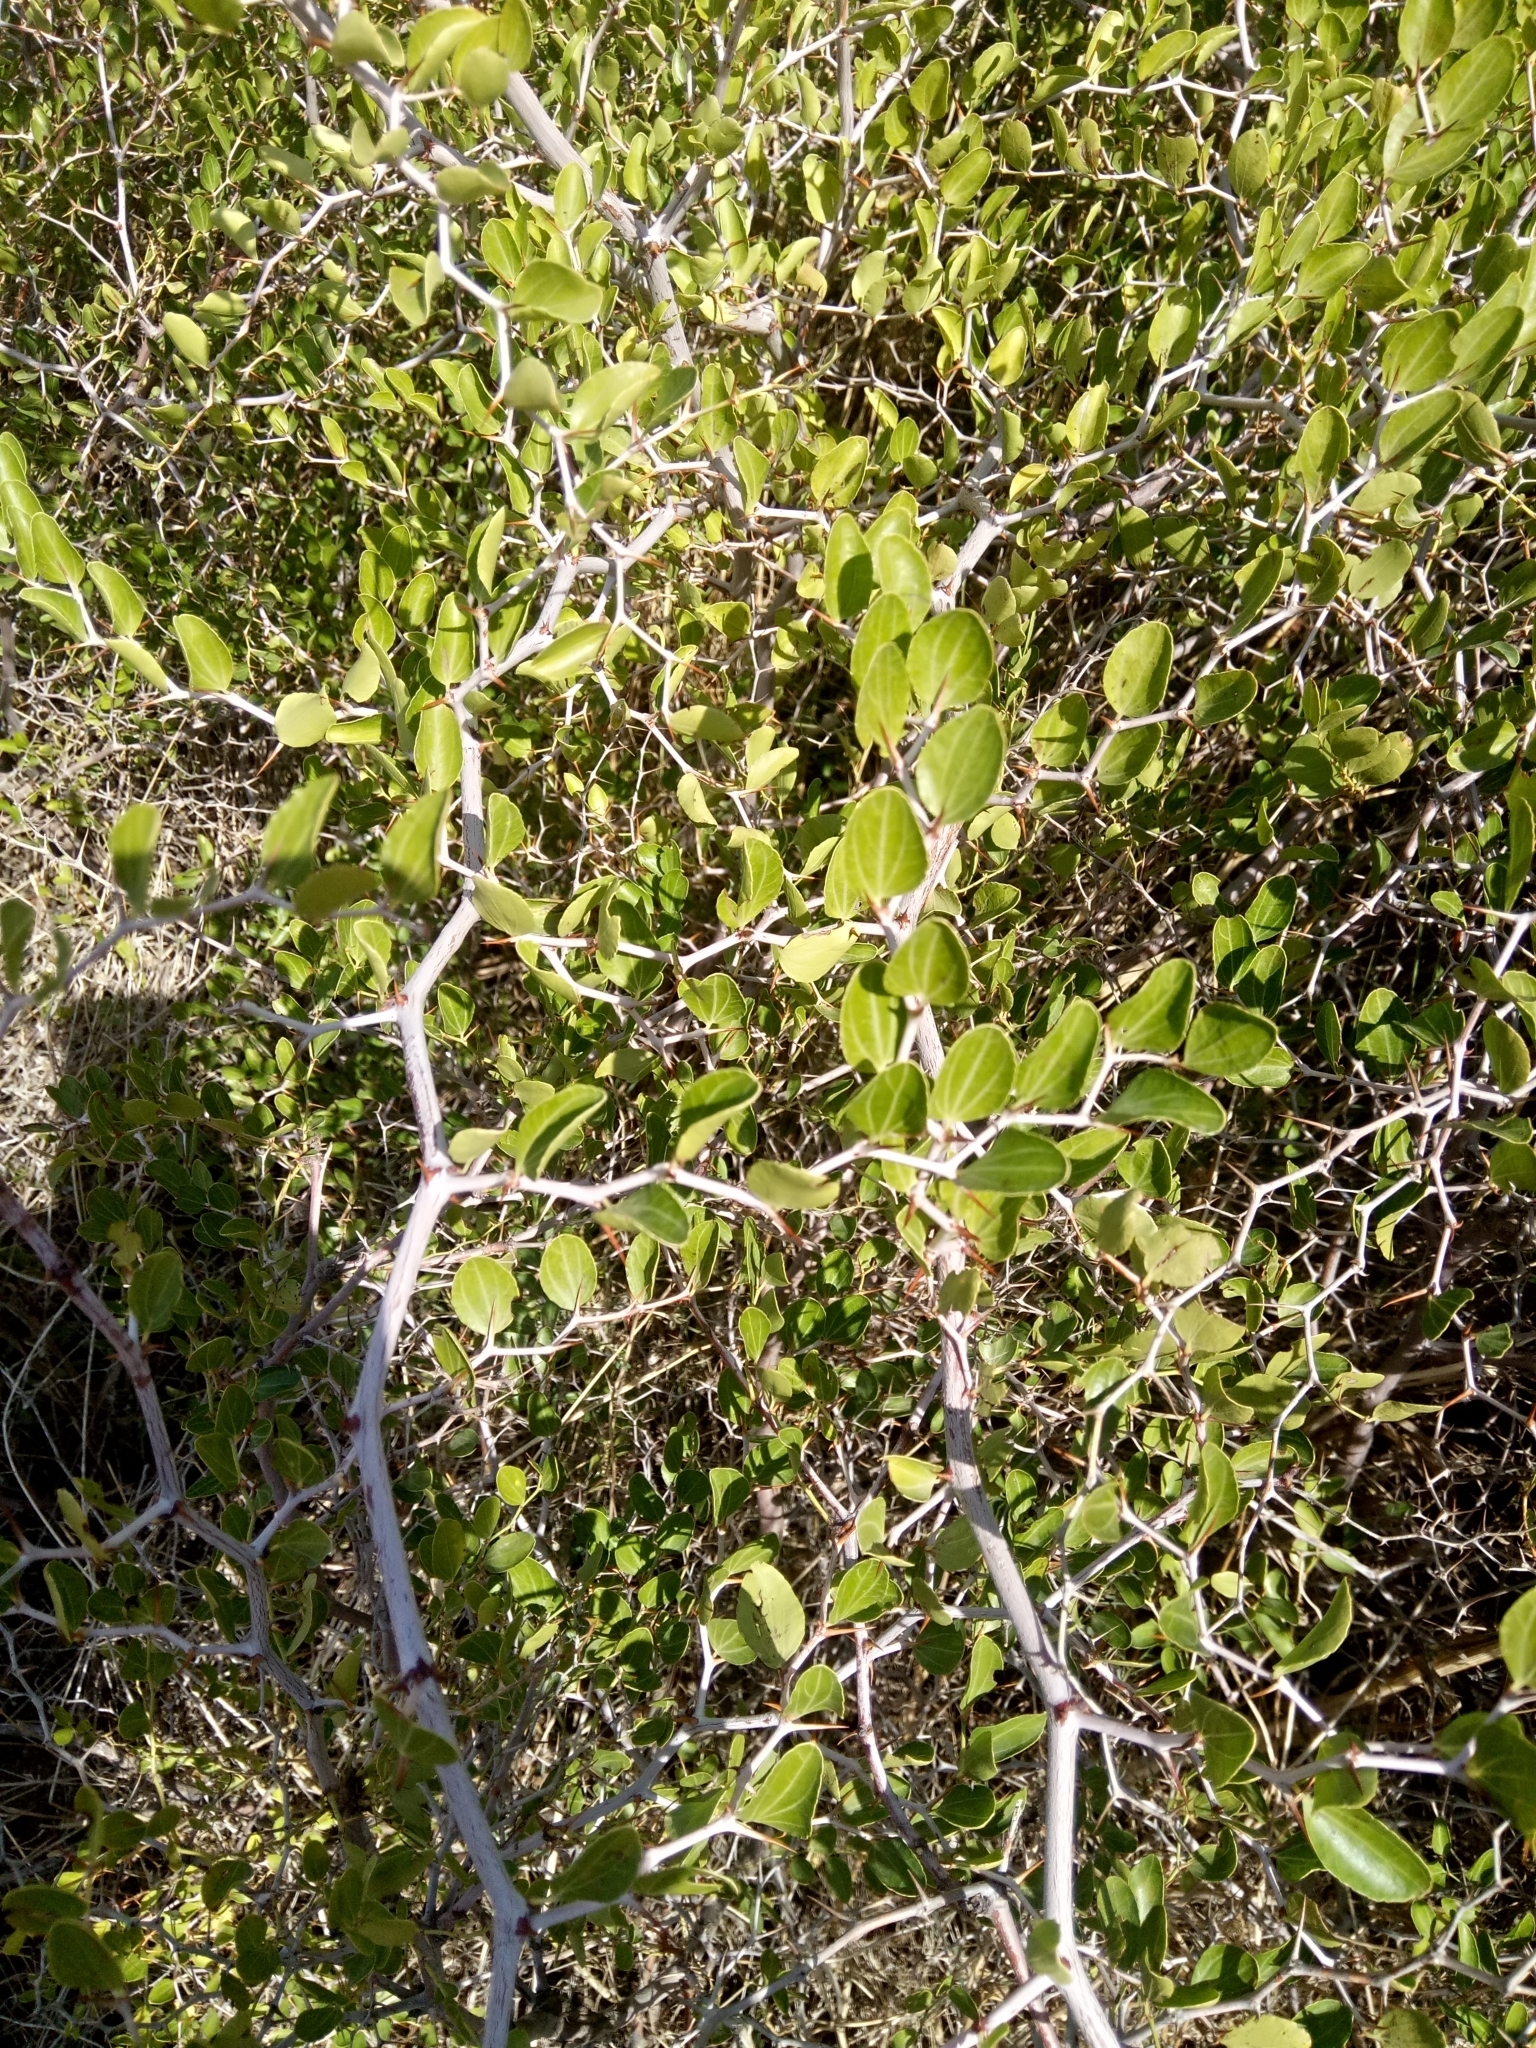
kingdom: Plantae
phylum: Tracheophyta
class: Magnoliopsida
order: Rosales
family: Rhamnaceae
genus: Ziziphus
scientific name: Ziziphus lotus
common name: Lotus
